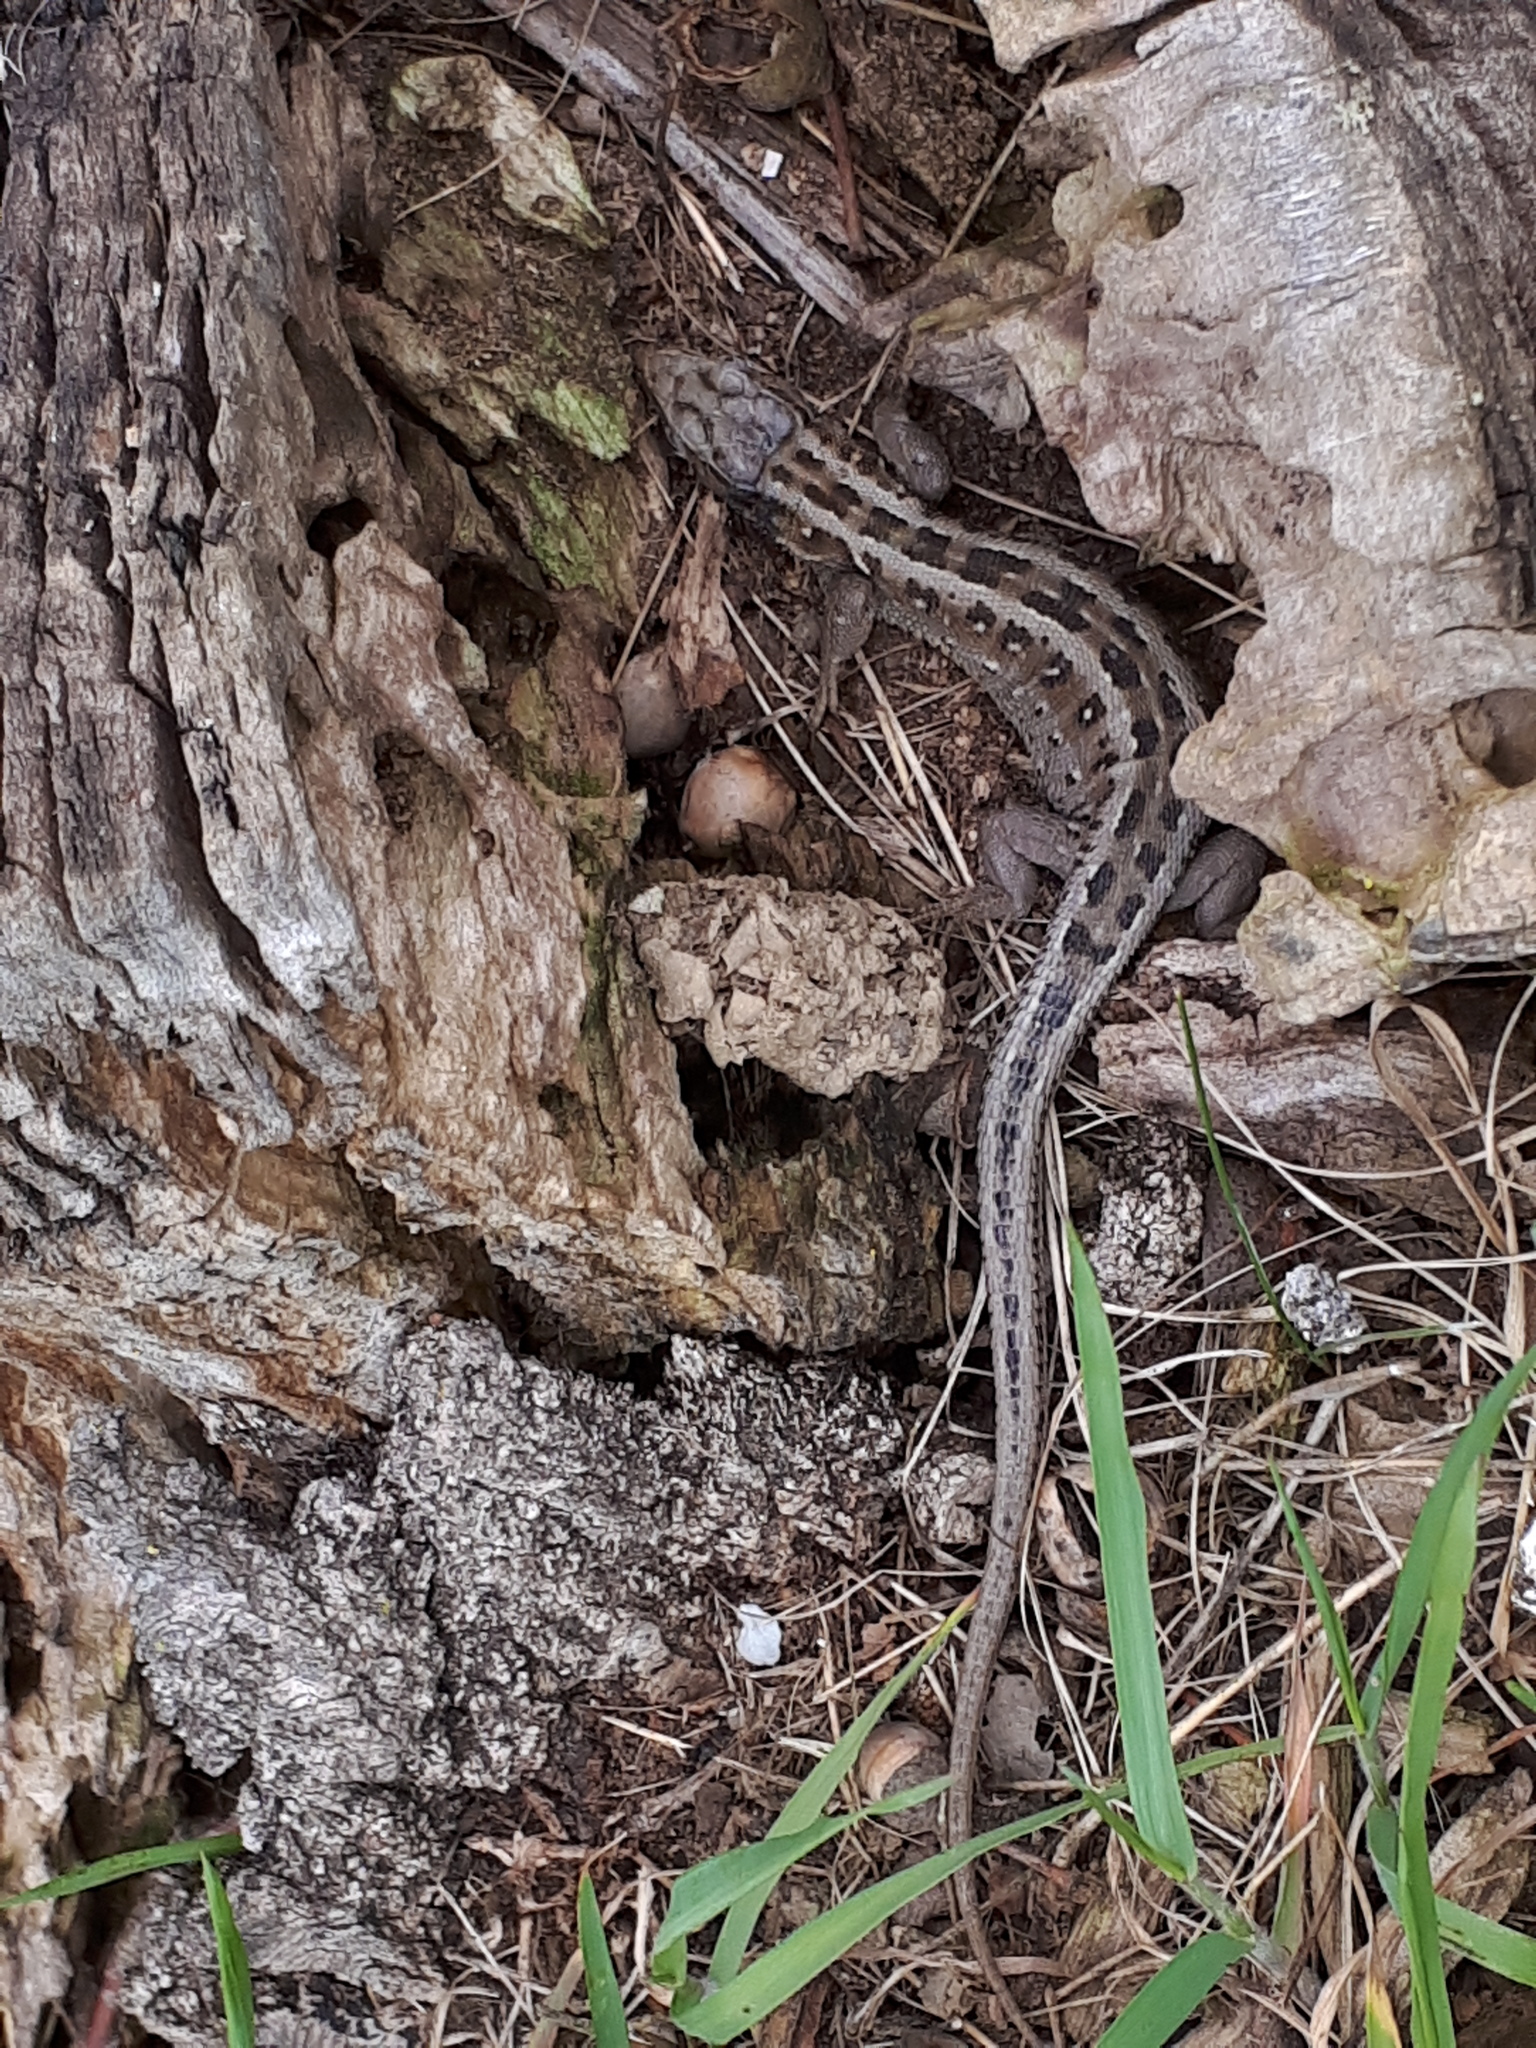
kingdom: Animalia
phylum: Chordata
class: Squamata
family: Lacertidae
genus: Lacerta
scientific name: Lacerta agilis
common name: Sand lizard
